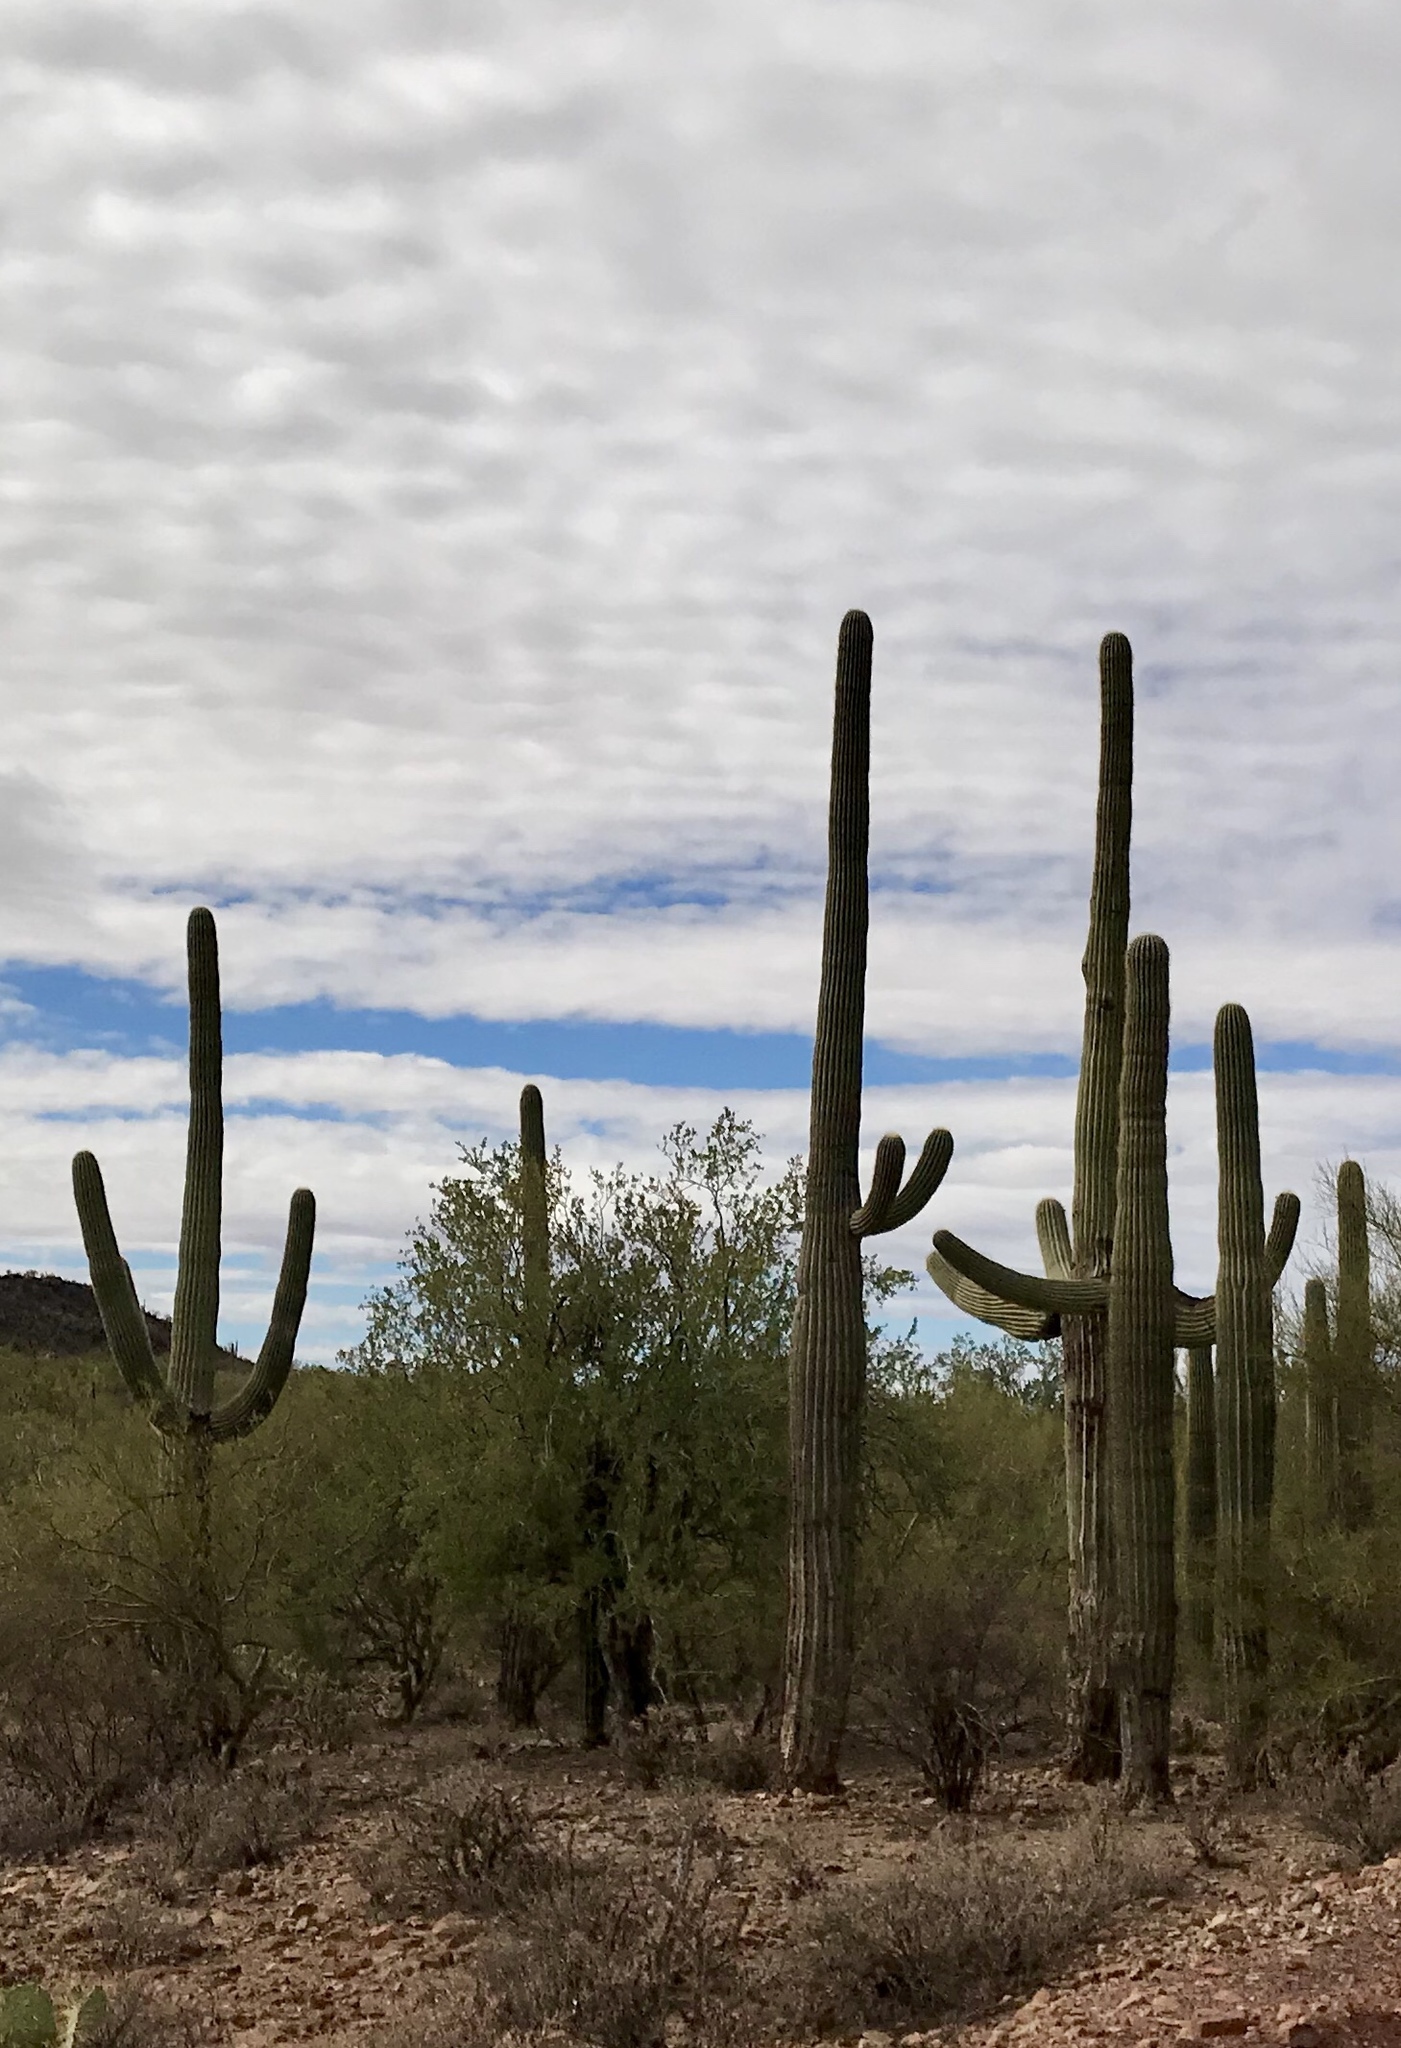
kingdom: Plantae
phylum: Tracheophyta
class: Magnoliopsida
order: Caryophyllales
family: Cactaceae
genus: Carnegiea
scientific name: Carnegiea gigantea
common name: Saguaro
